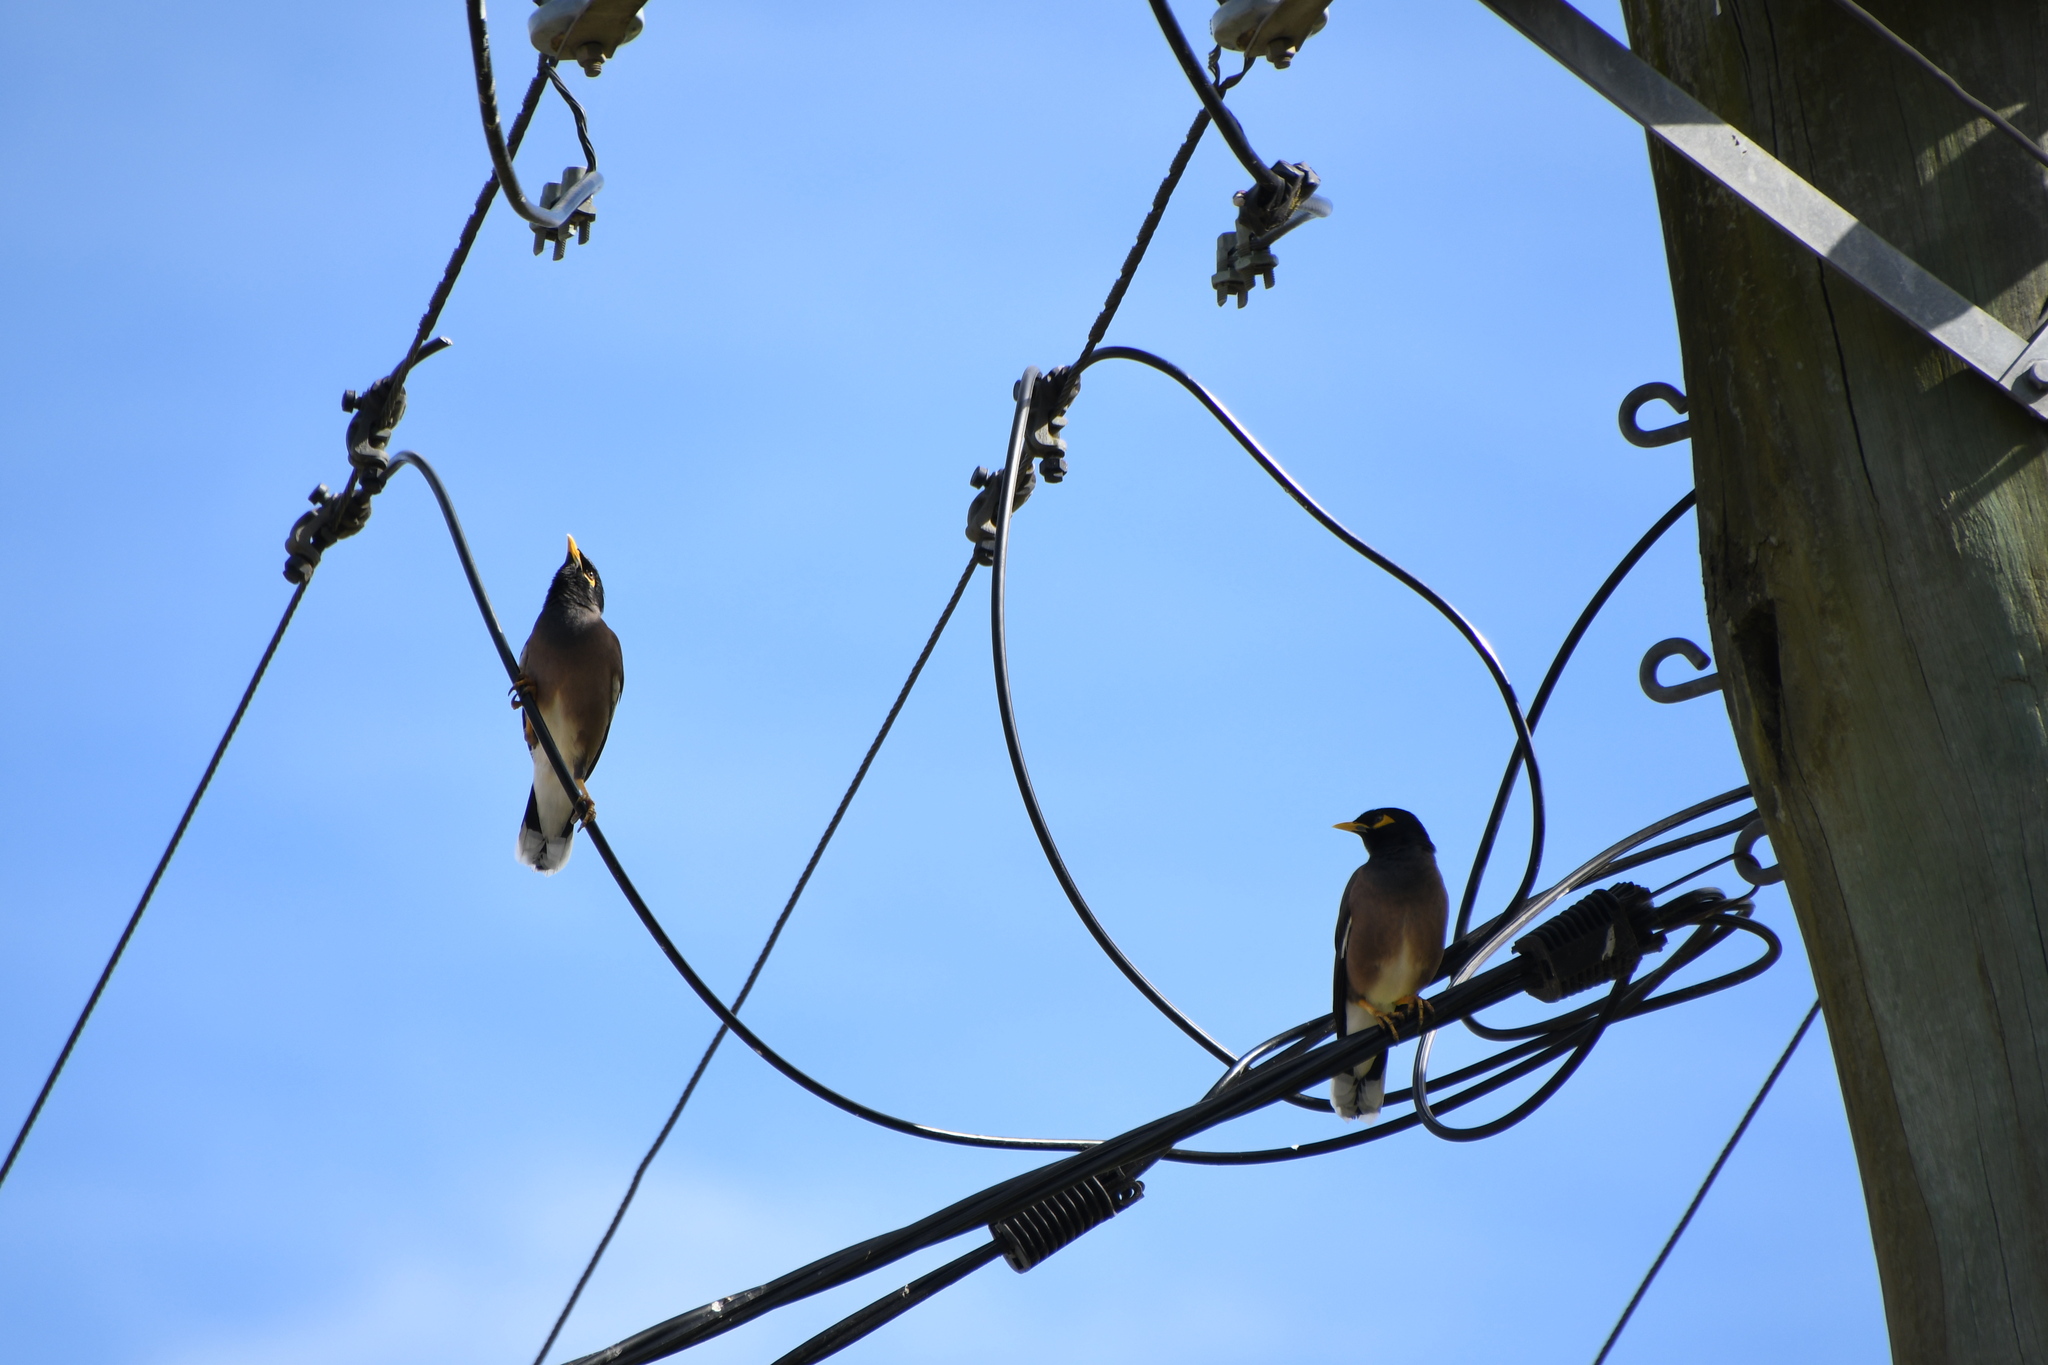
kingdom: Animalia
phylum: Chordata
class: Aves
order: Passeriformes
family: Sturnidae
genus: Acridotheres
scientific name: Acridotheres tristis
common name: Common myna
